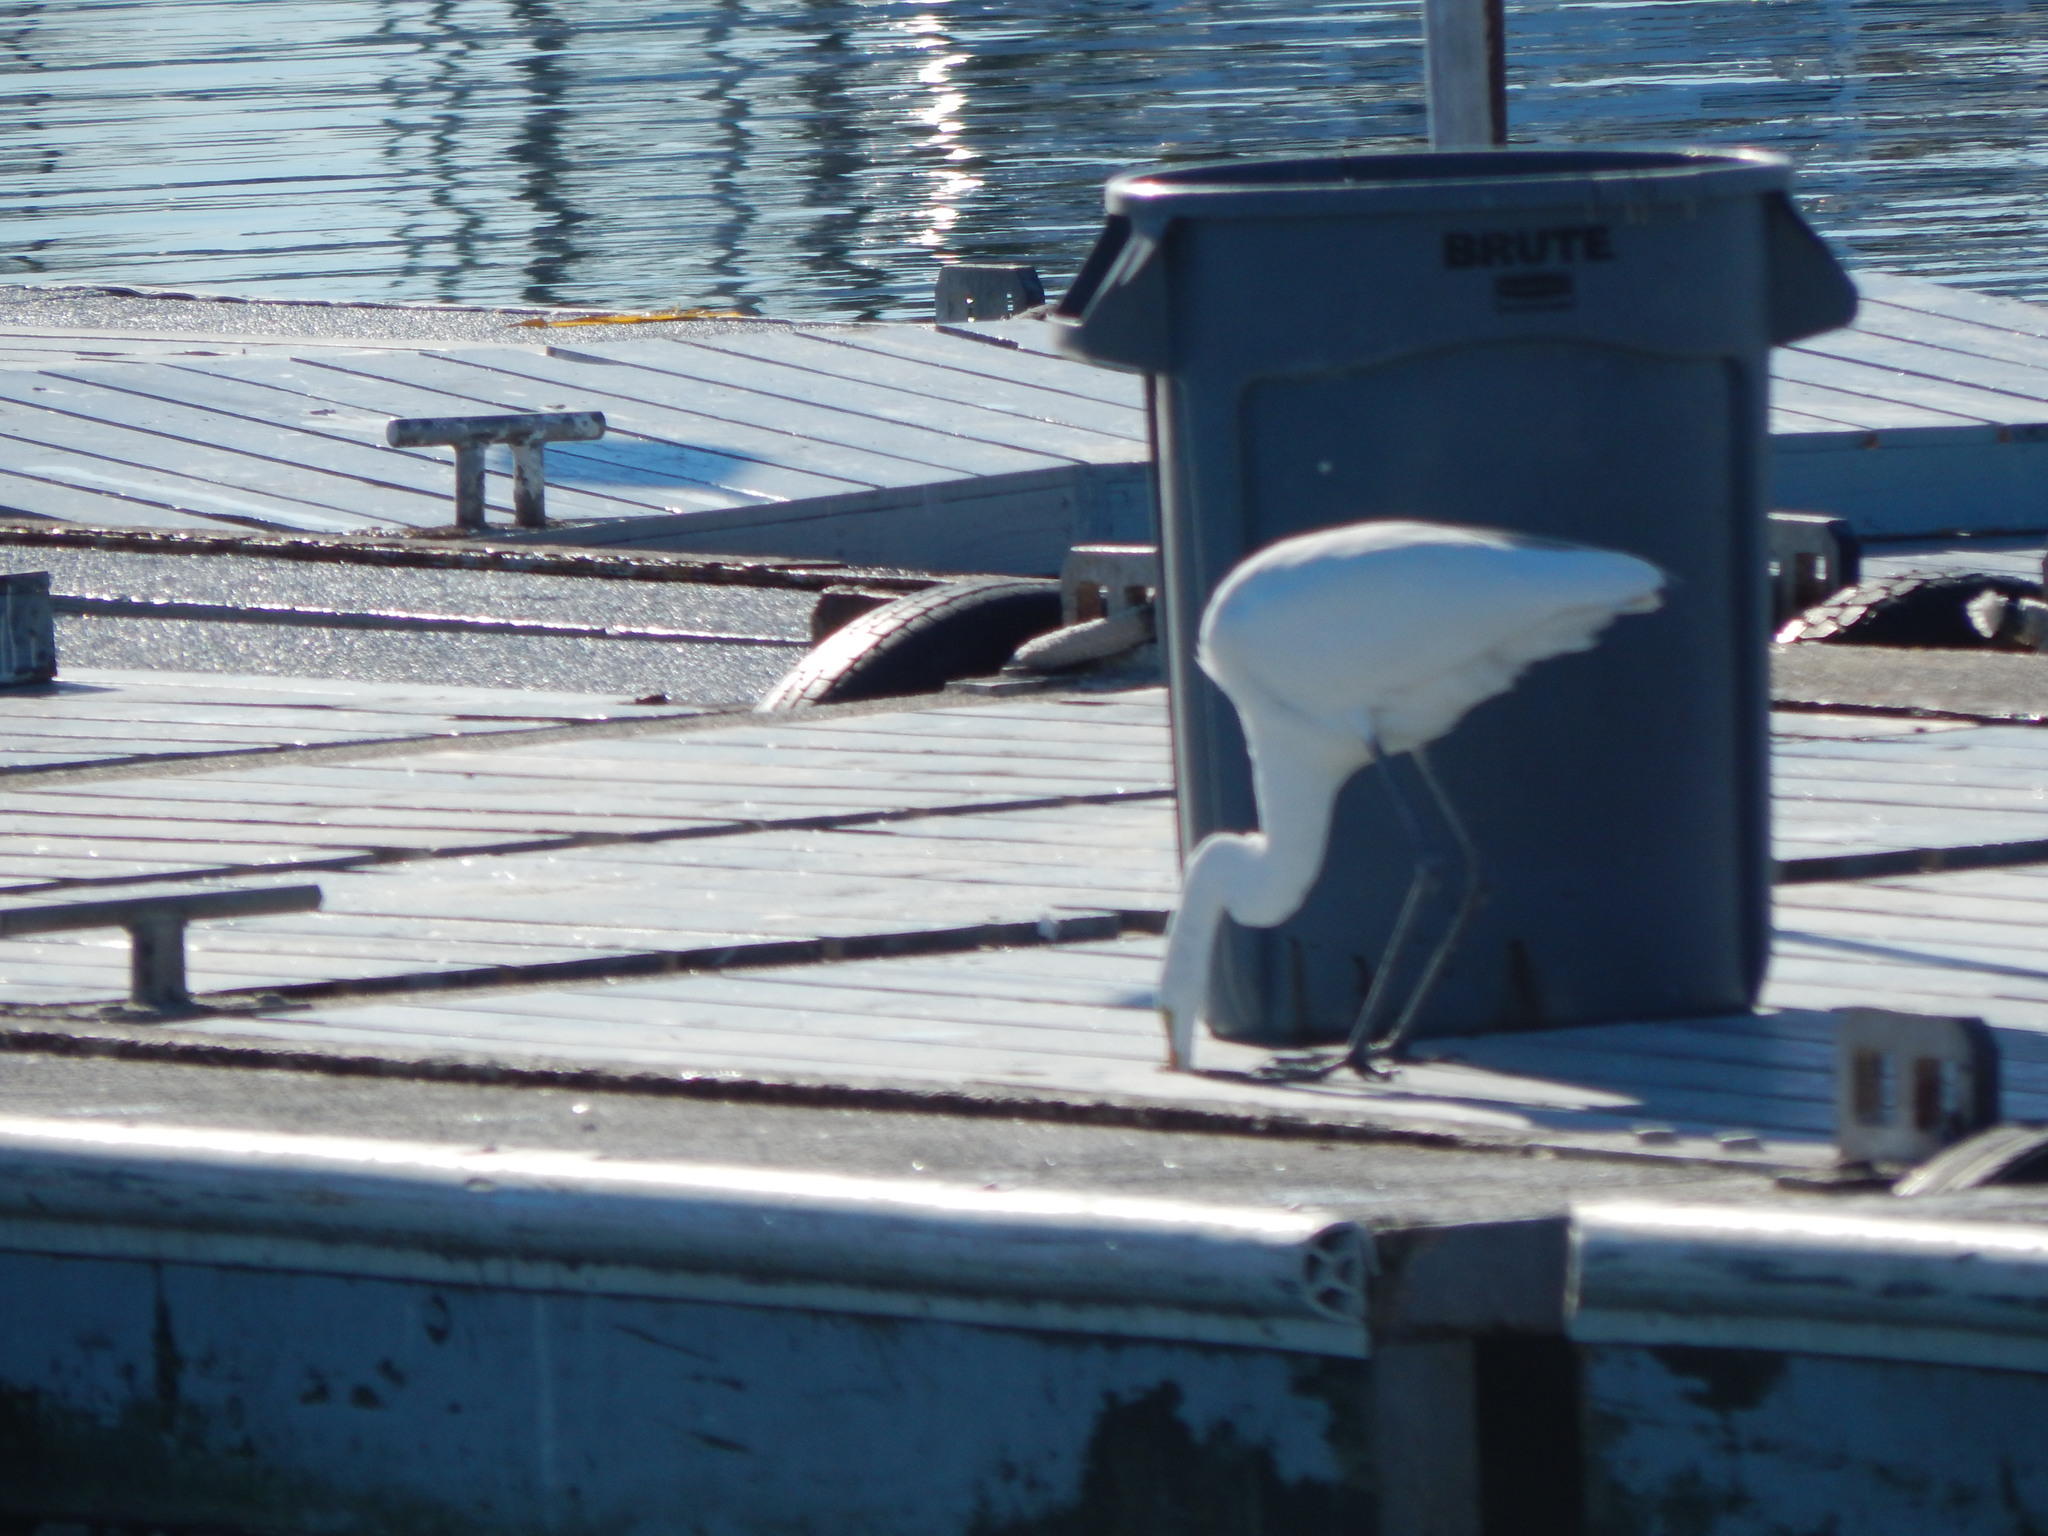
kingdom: Animalia
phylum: Chordata
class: Aves
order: Pelecaniformes
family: Ardeidae
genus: Ardea
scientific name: Ardea alba
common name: Great egret
